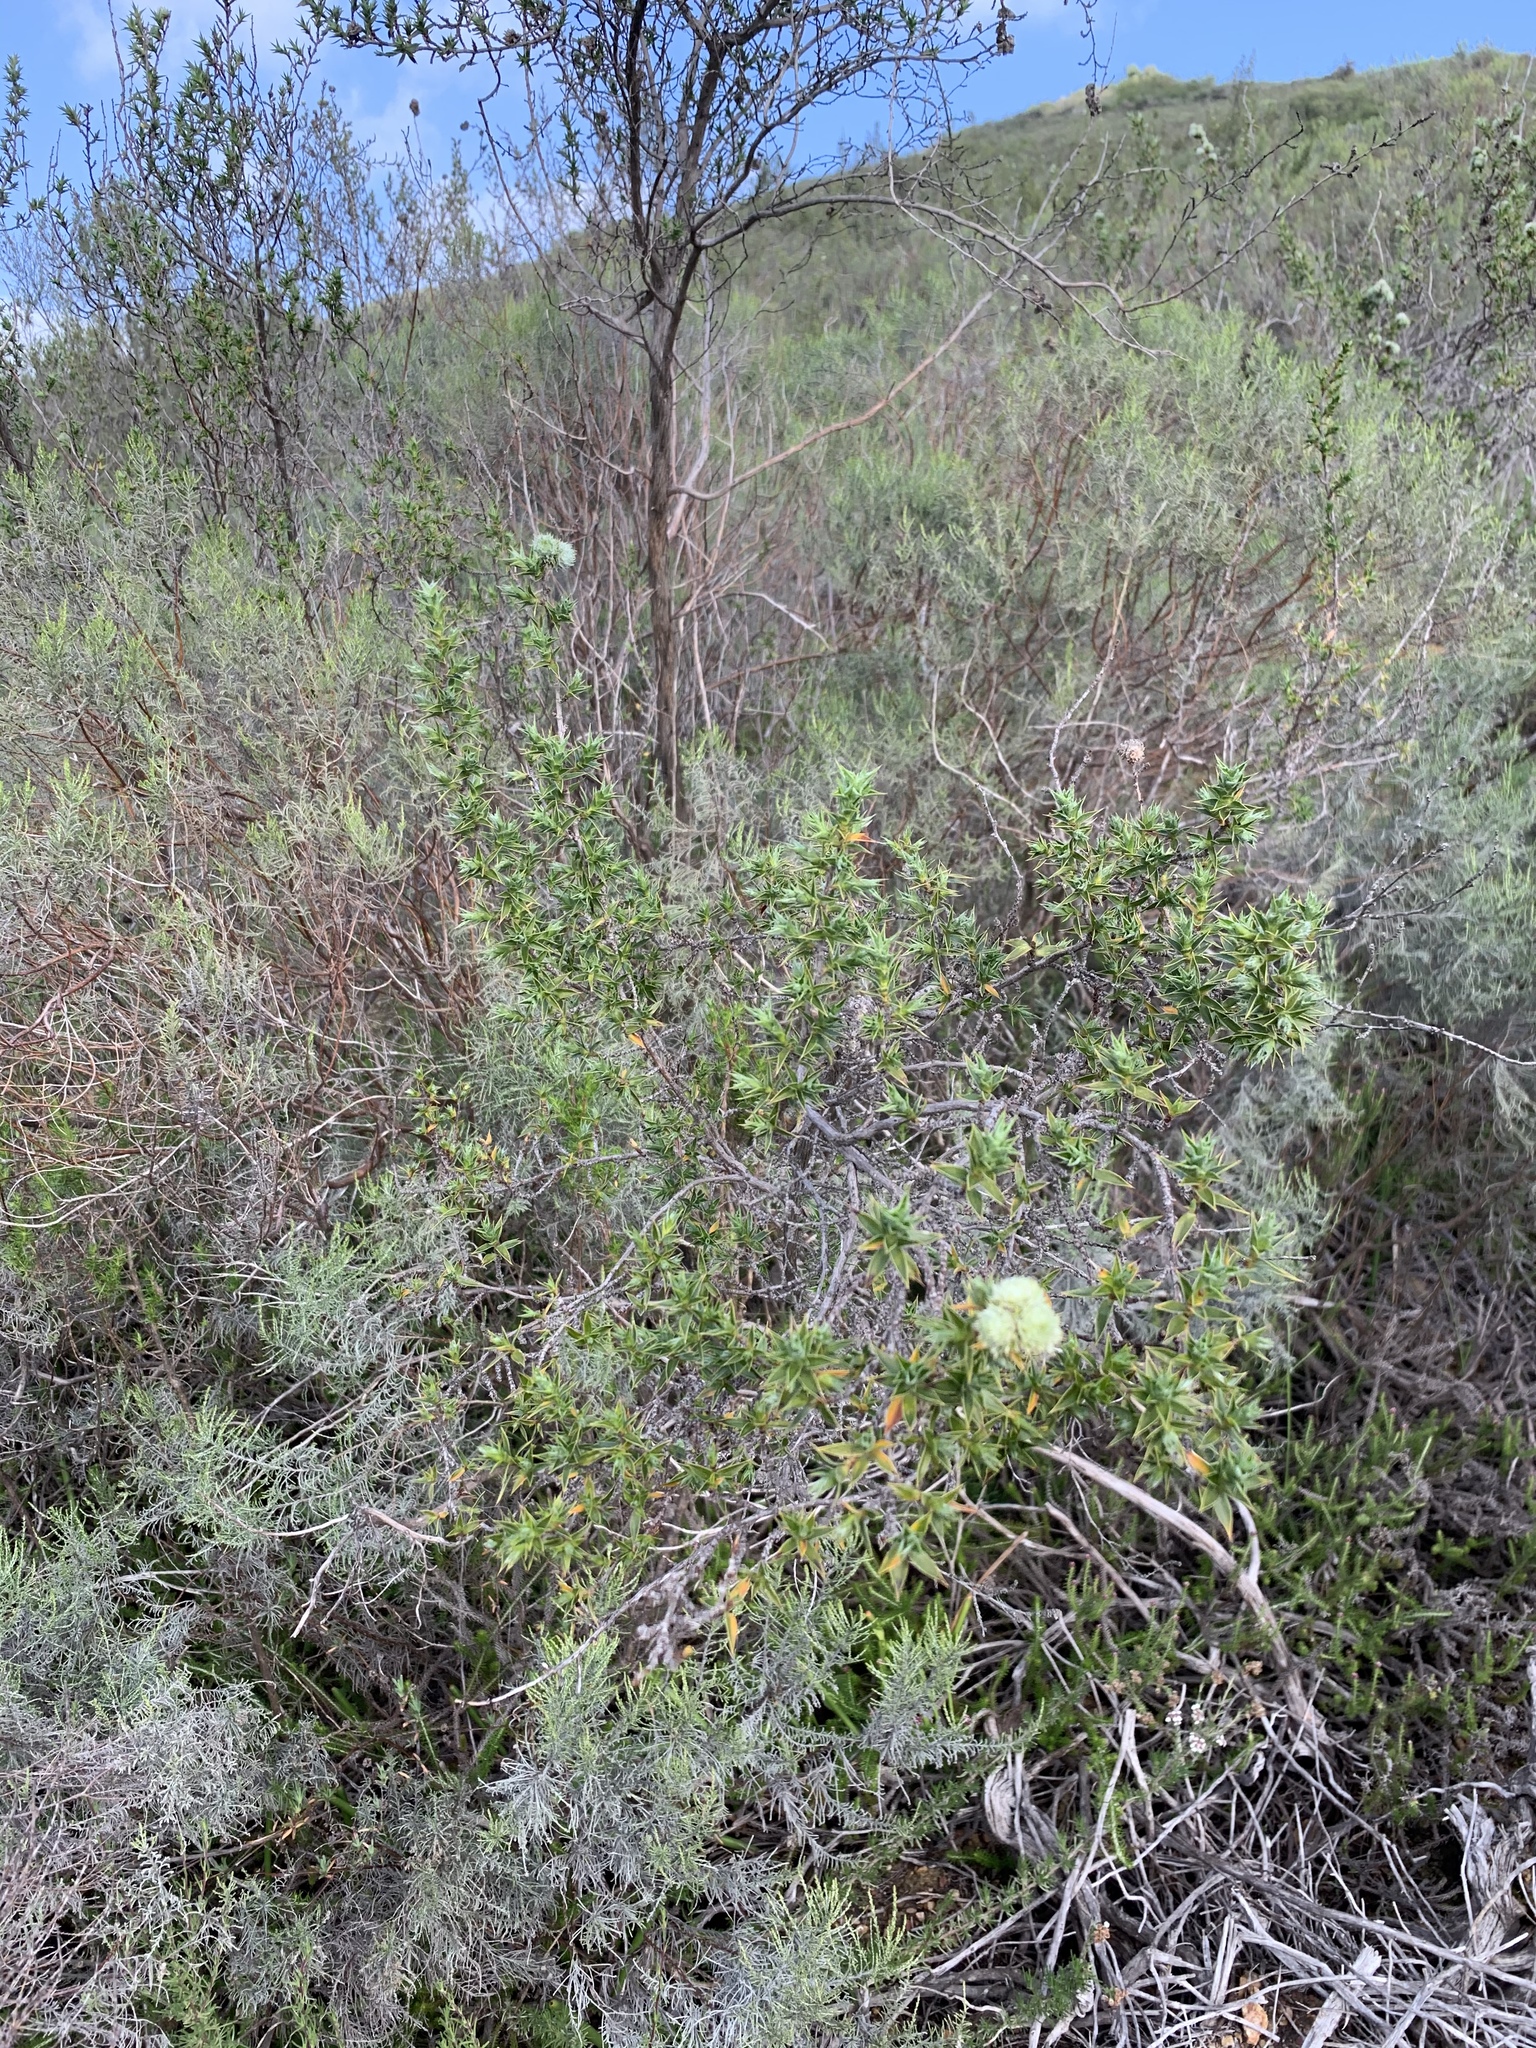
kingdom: Plantae
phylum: Tracheophyta
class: Magnoliopsida
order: Rosales
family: Rosaceae
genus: Cliffortia
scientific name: Cliffortia ruscifolia
